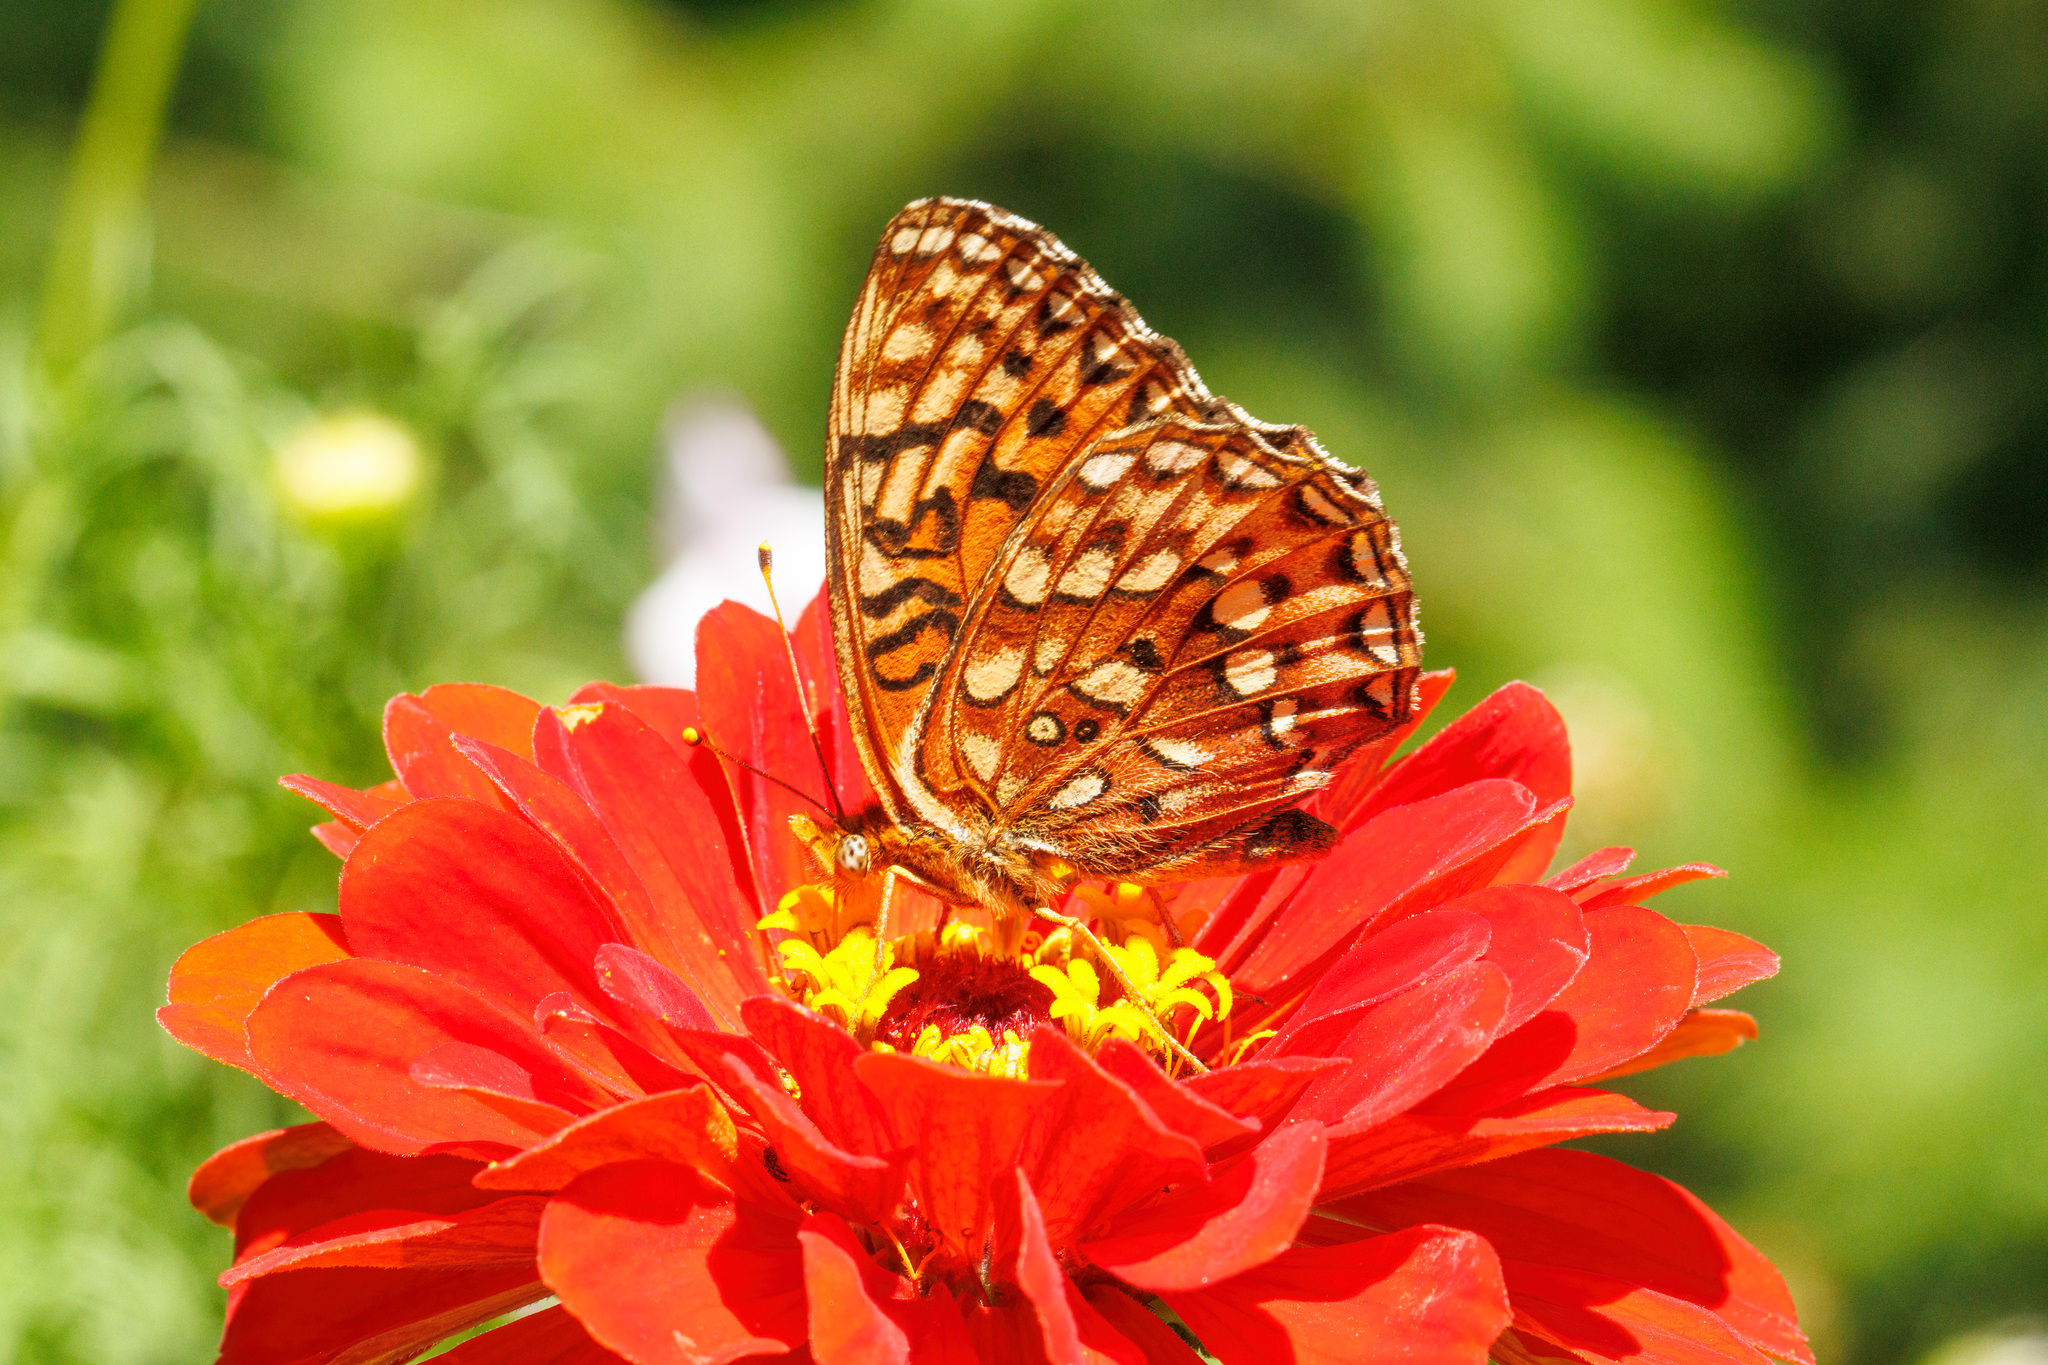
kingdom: Animalia
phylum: Arthropoda
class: Insecta
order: Lepidoptera
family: Nymphalidae
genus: Speyeria
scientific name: Speyeria hydaspe
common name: Hydaspe fritillary
